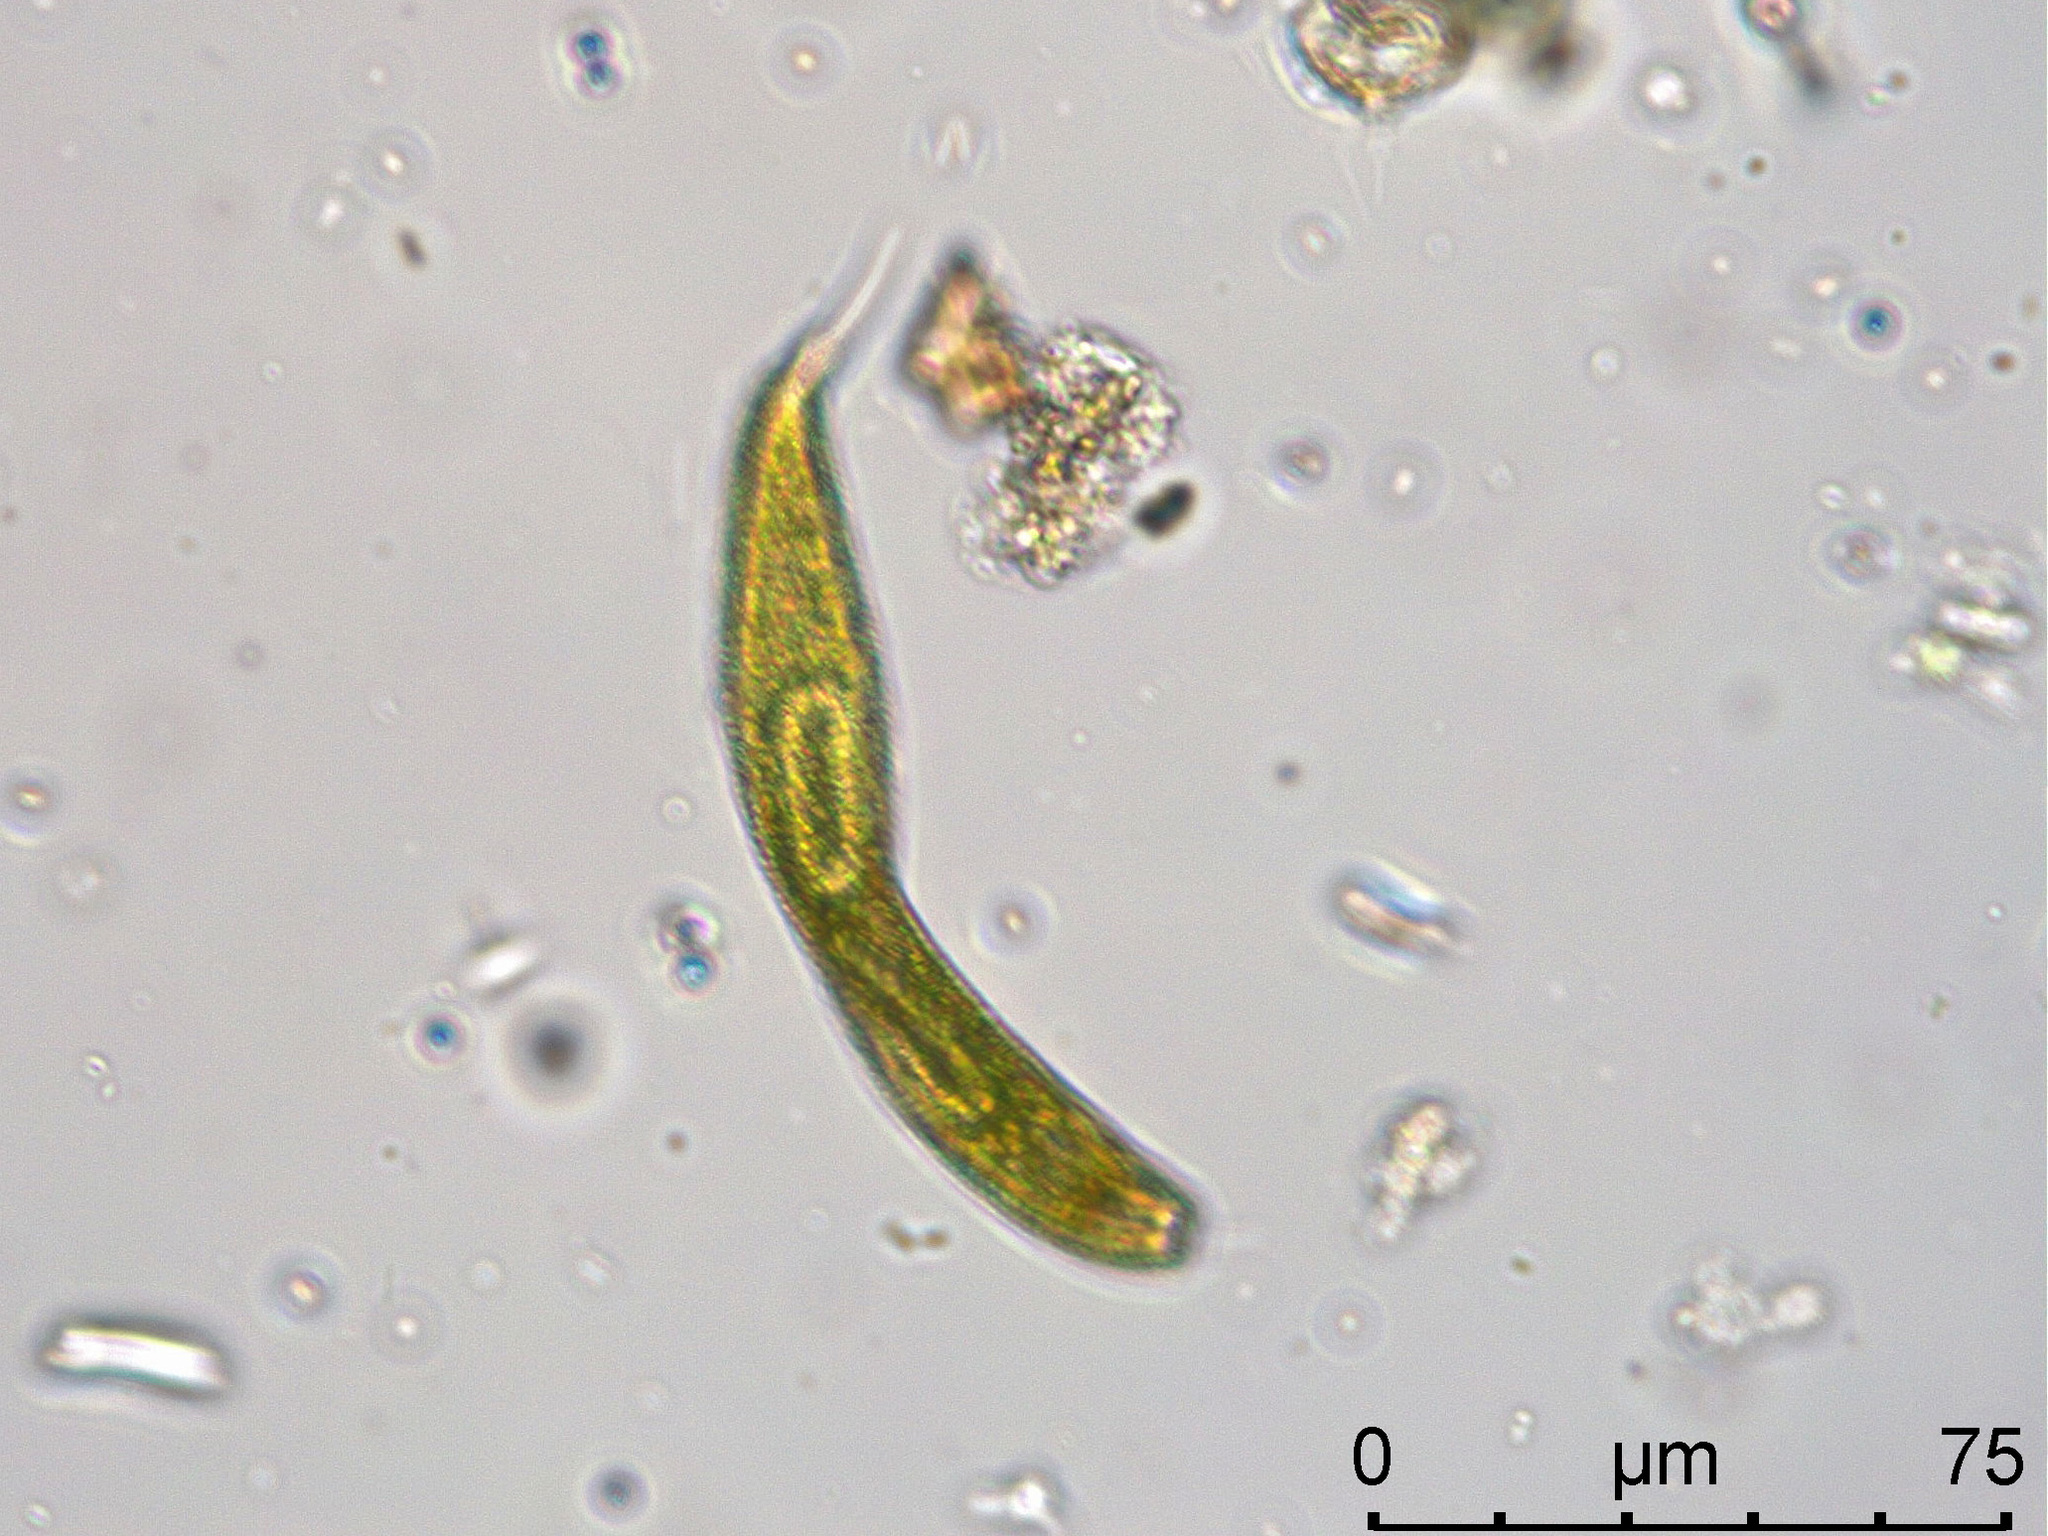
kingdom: Protozoa
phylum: Euglenozoa
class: Euglenoidea
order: Euglenida
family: Phacidae
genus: Lepocinclis
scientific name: Lepocinclis fusca
